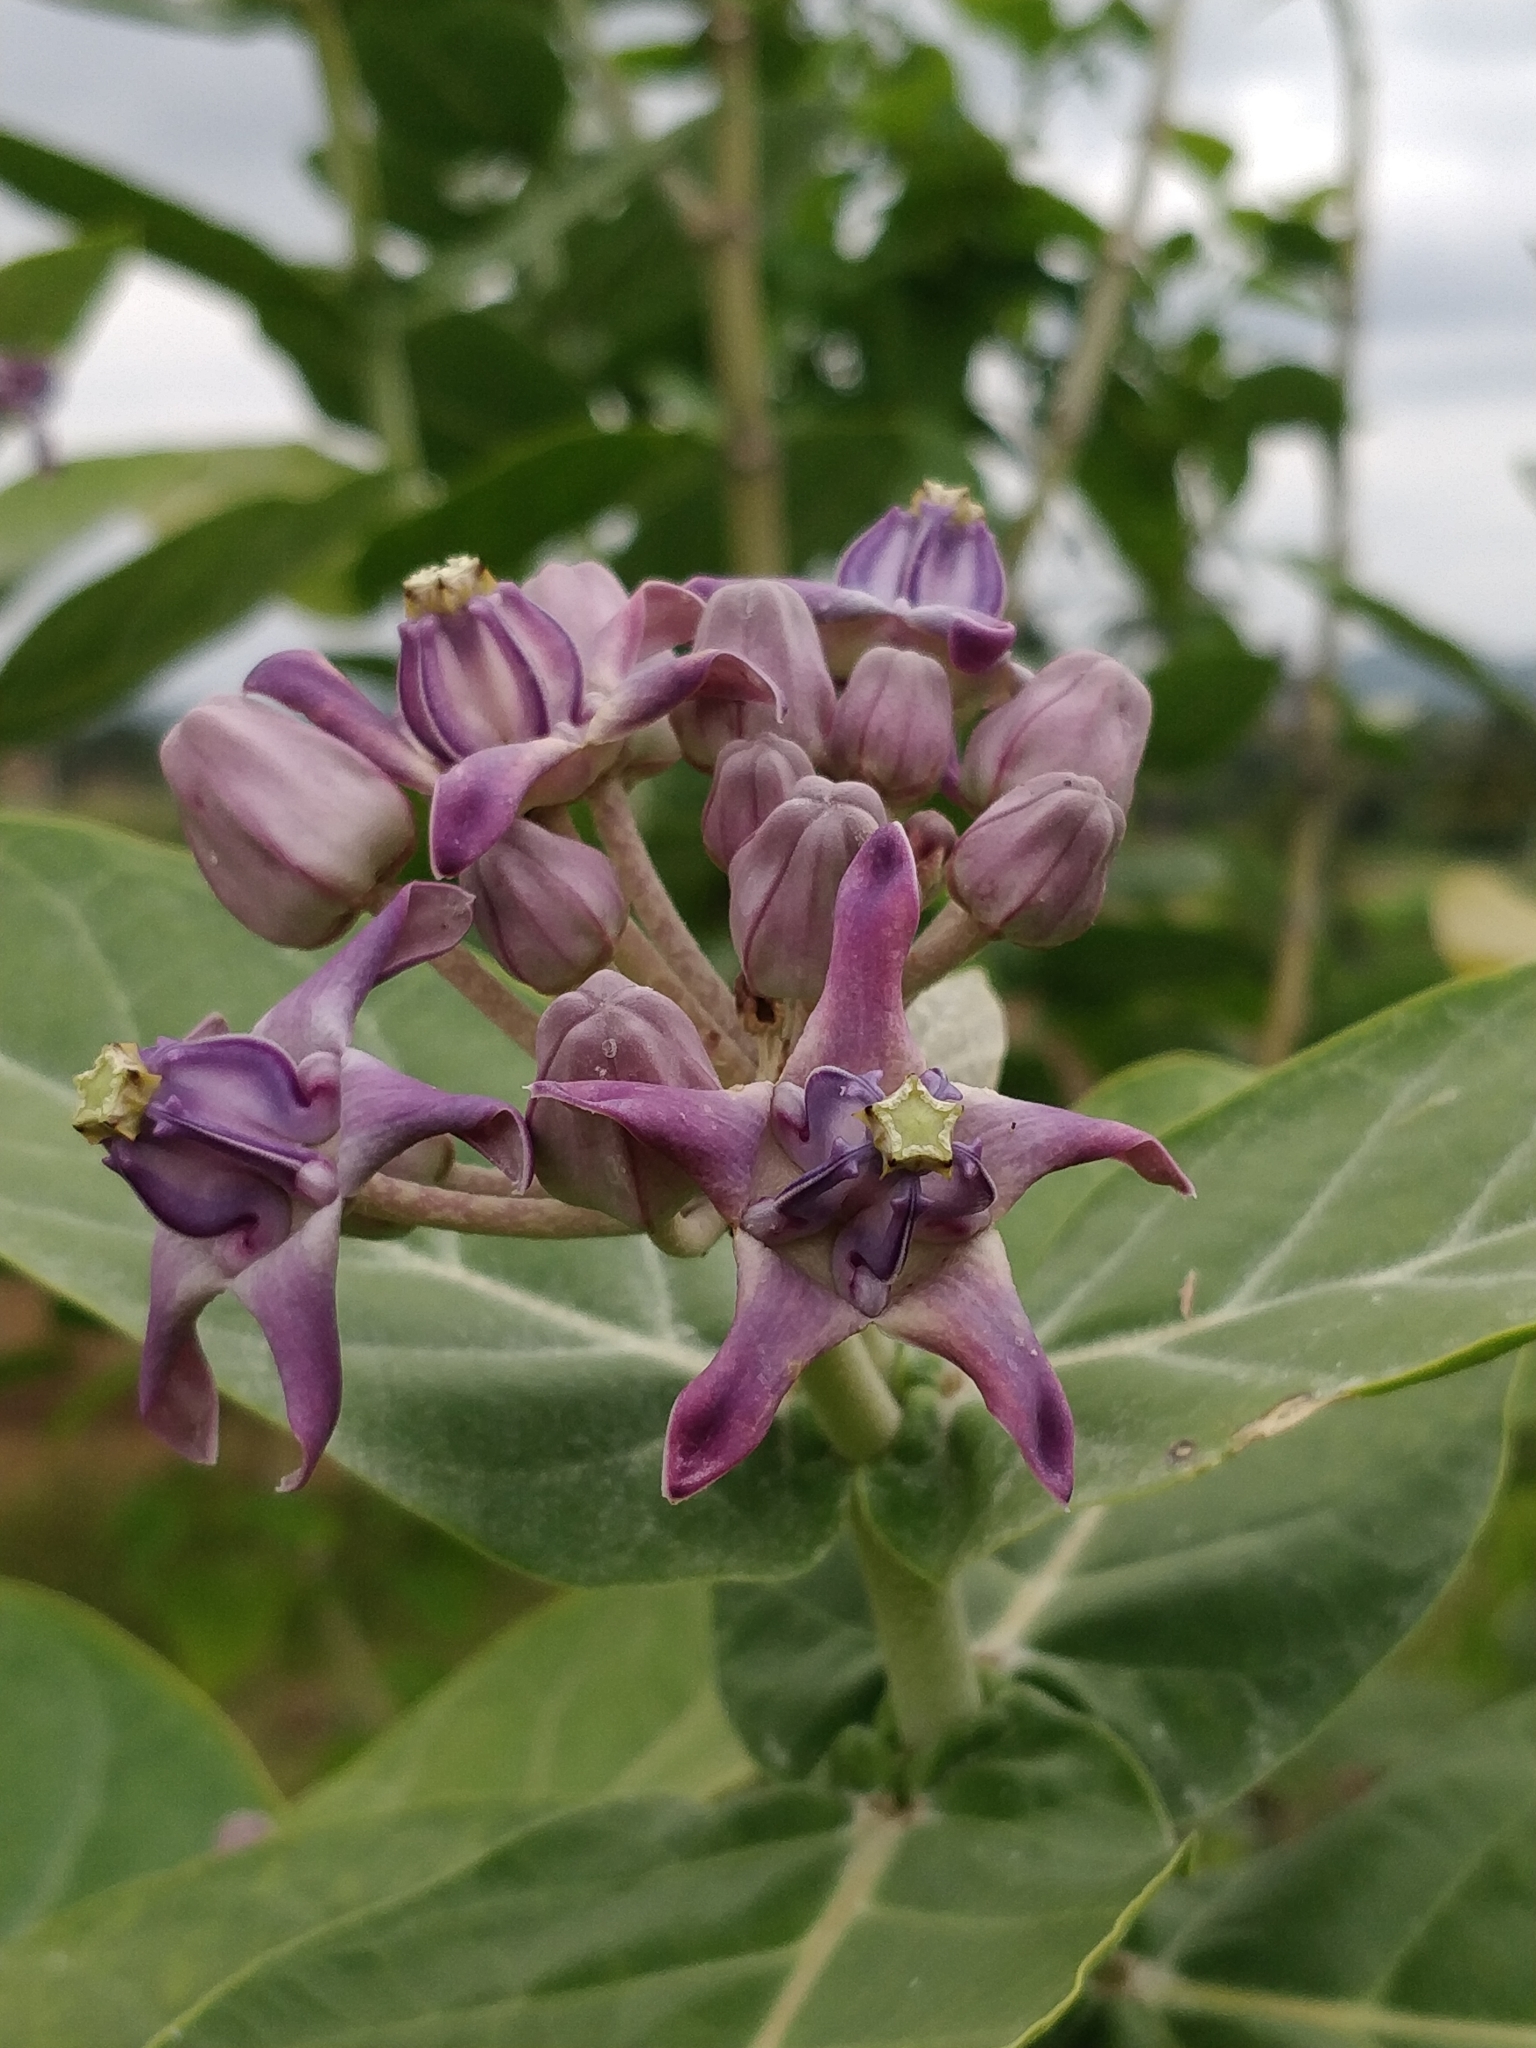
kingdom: Plantae
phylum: Tracheophyta
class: Magnoliopsida
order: Gentianales
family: Apocynaceae
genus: Calotropis
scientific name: Calotropis gigantea
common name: Crown flower
